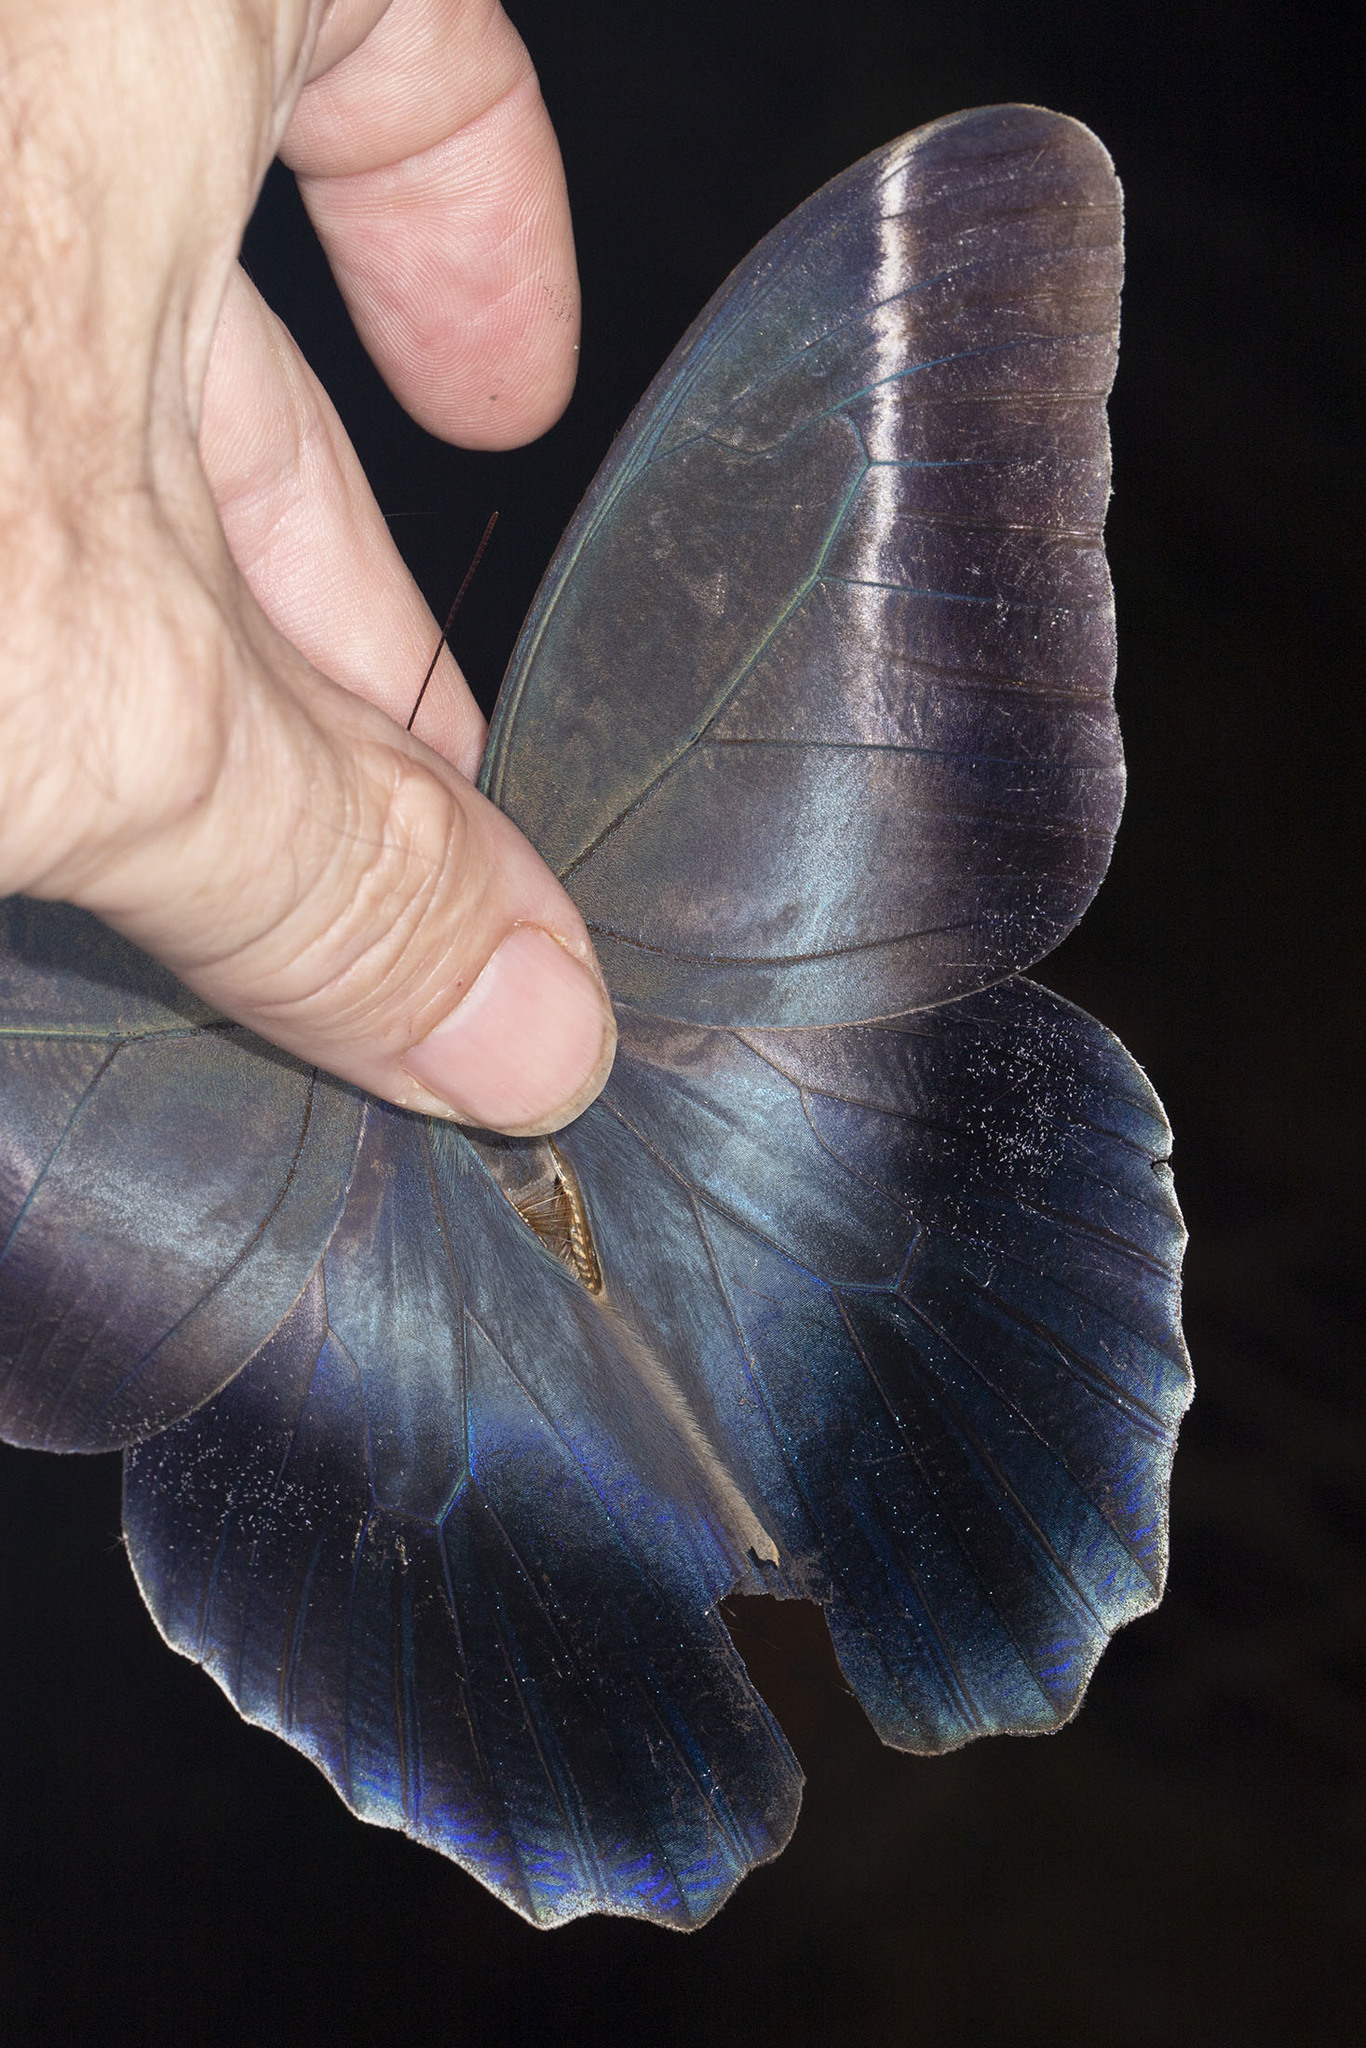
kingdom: Animalia
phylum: Arthropoda
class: Insecta
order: Lepidoptera
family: Nymphalidae
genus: Caligo
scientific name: Caligo idomeneus
